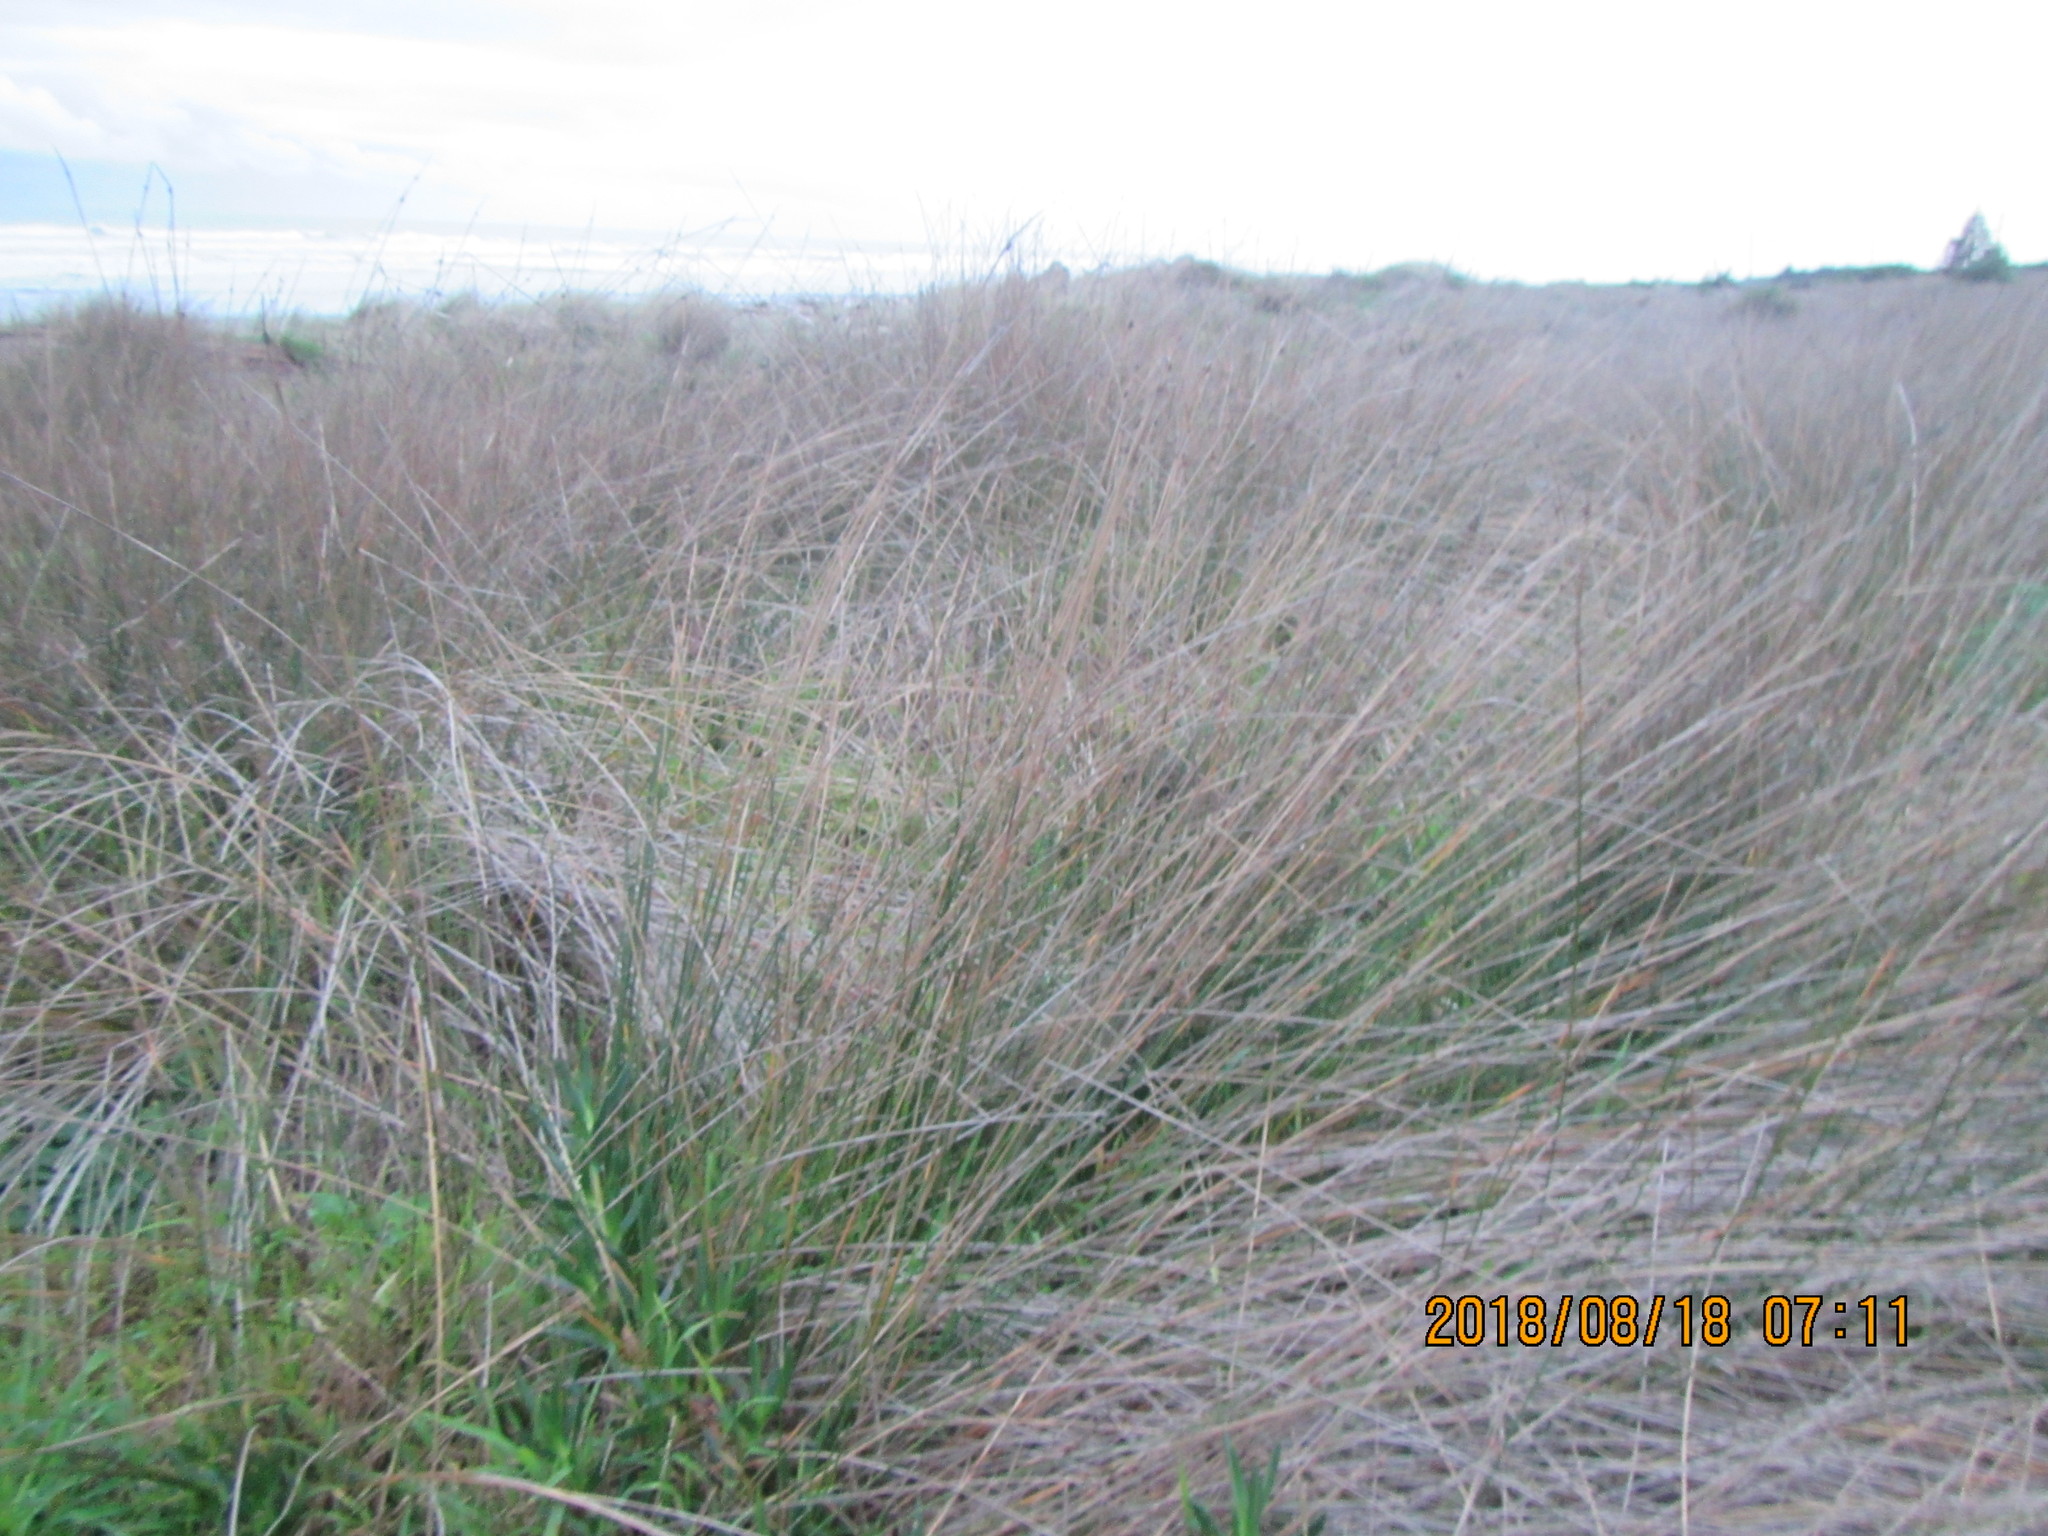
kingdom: Plantae
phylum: Tracheophyta
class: Liliopsida
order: Poales
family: Cyperaceae
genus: Ficinia
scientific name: Ficinia nodosa
